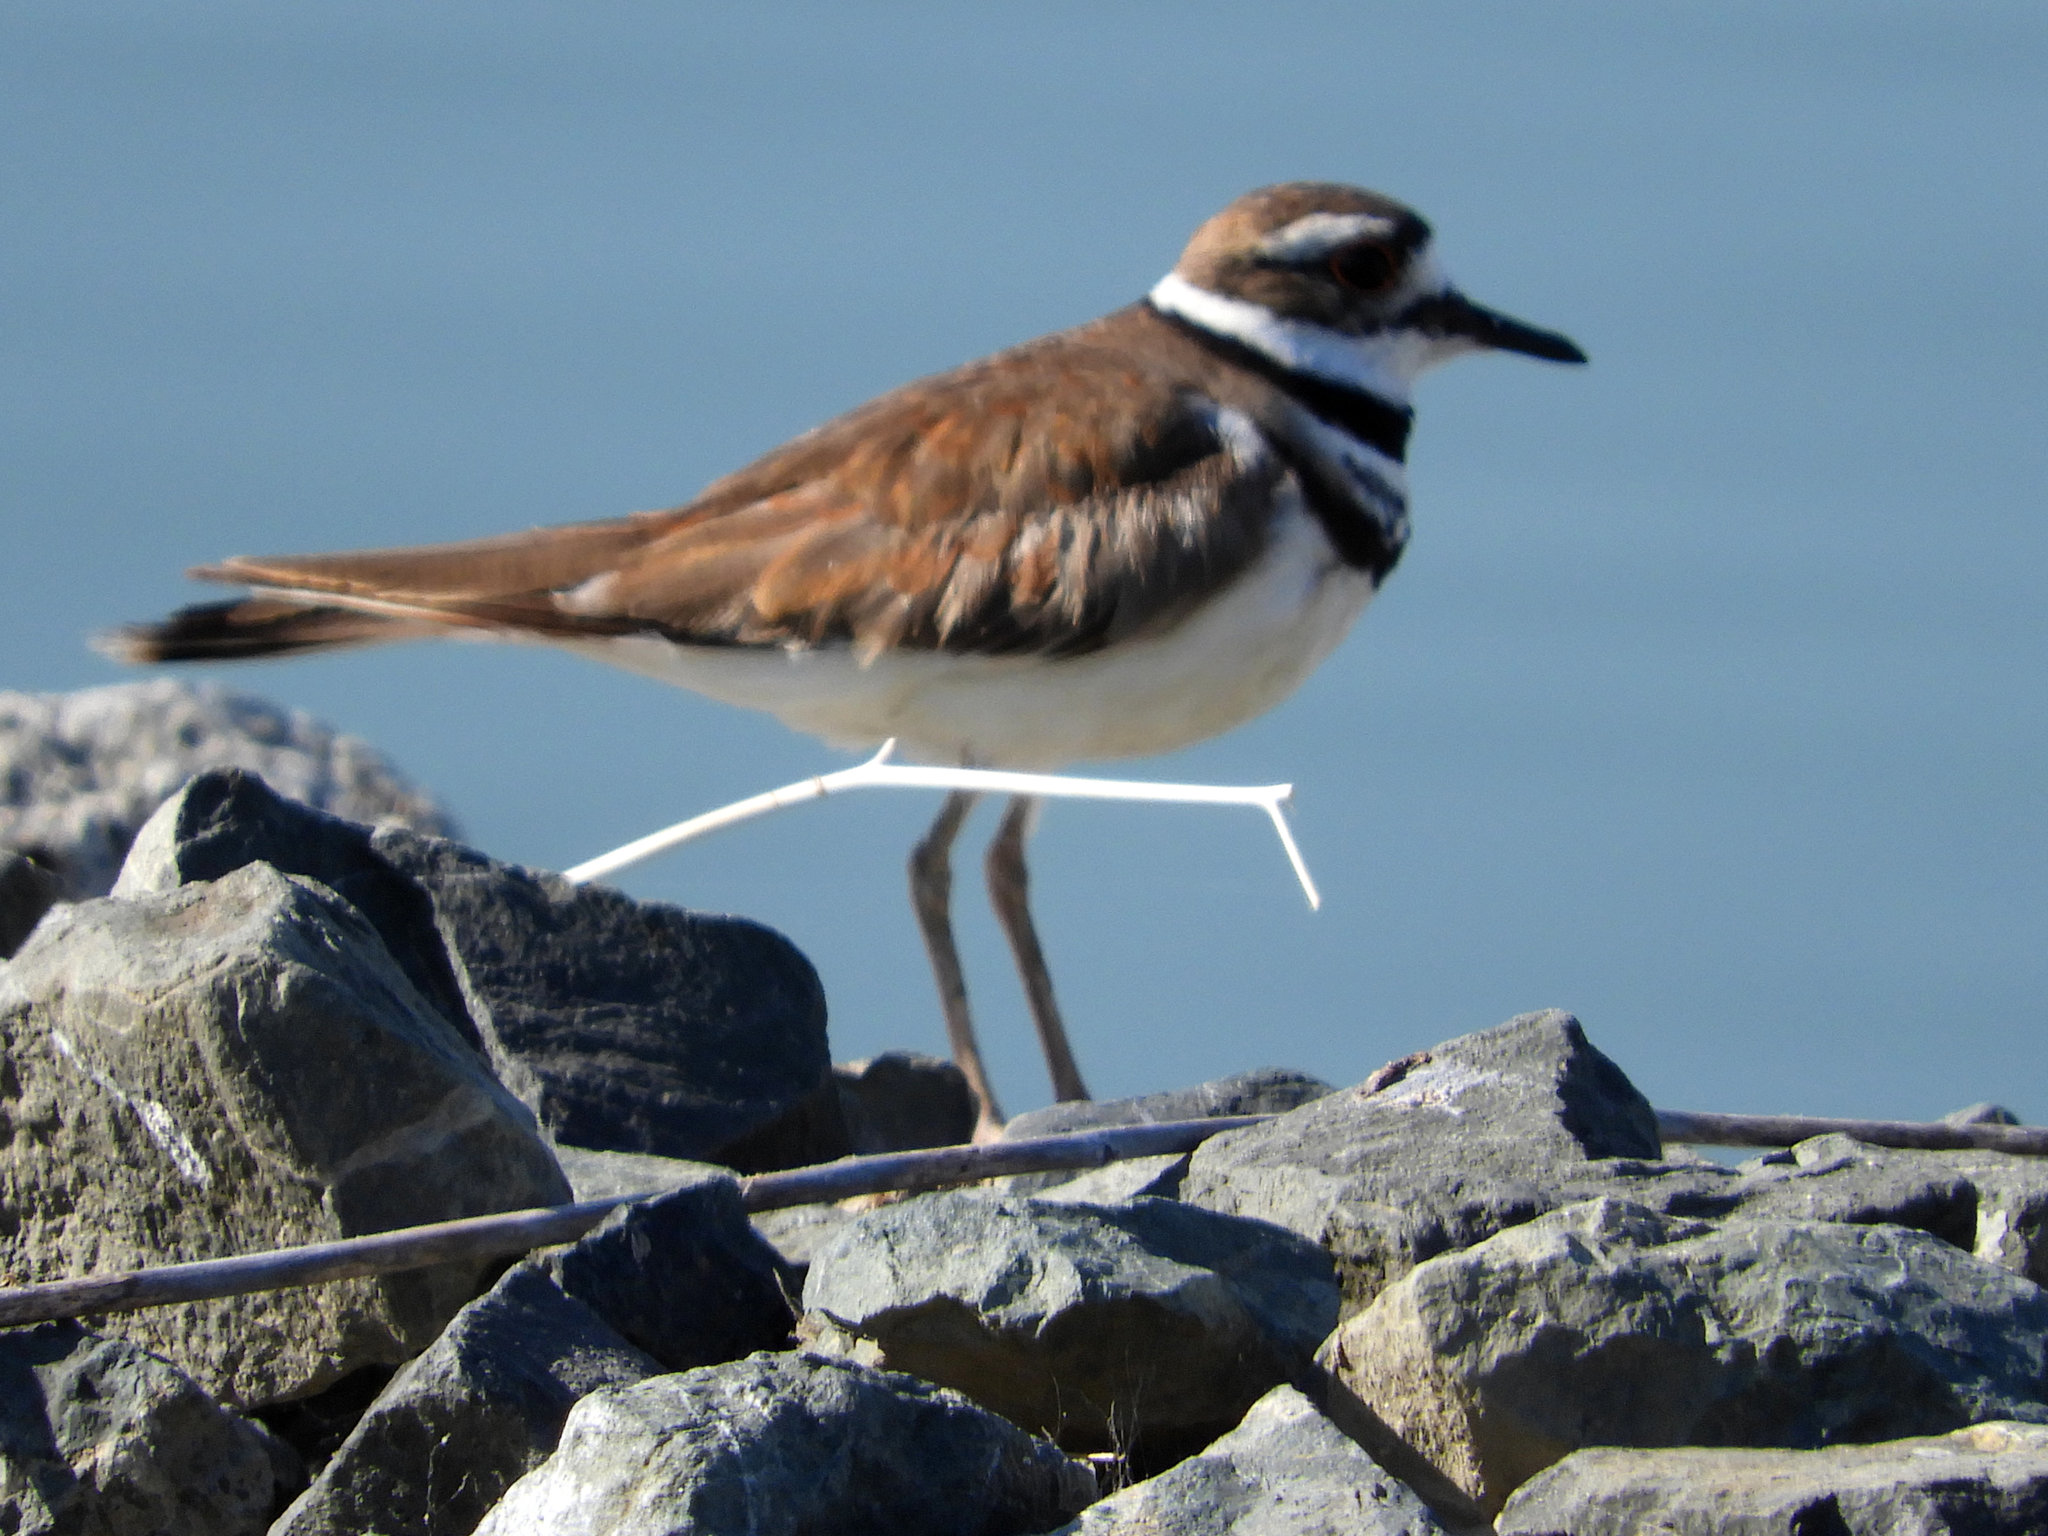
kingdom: Animalia
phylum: Chordata
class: Aves
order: Charadriiformes
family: Charadriidae
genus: Charadrius
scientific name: Charadrius vociferus
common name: Killdeer
